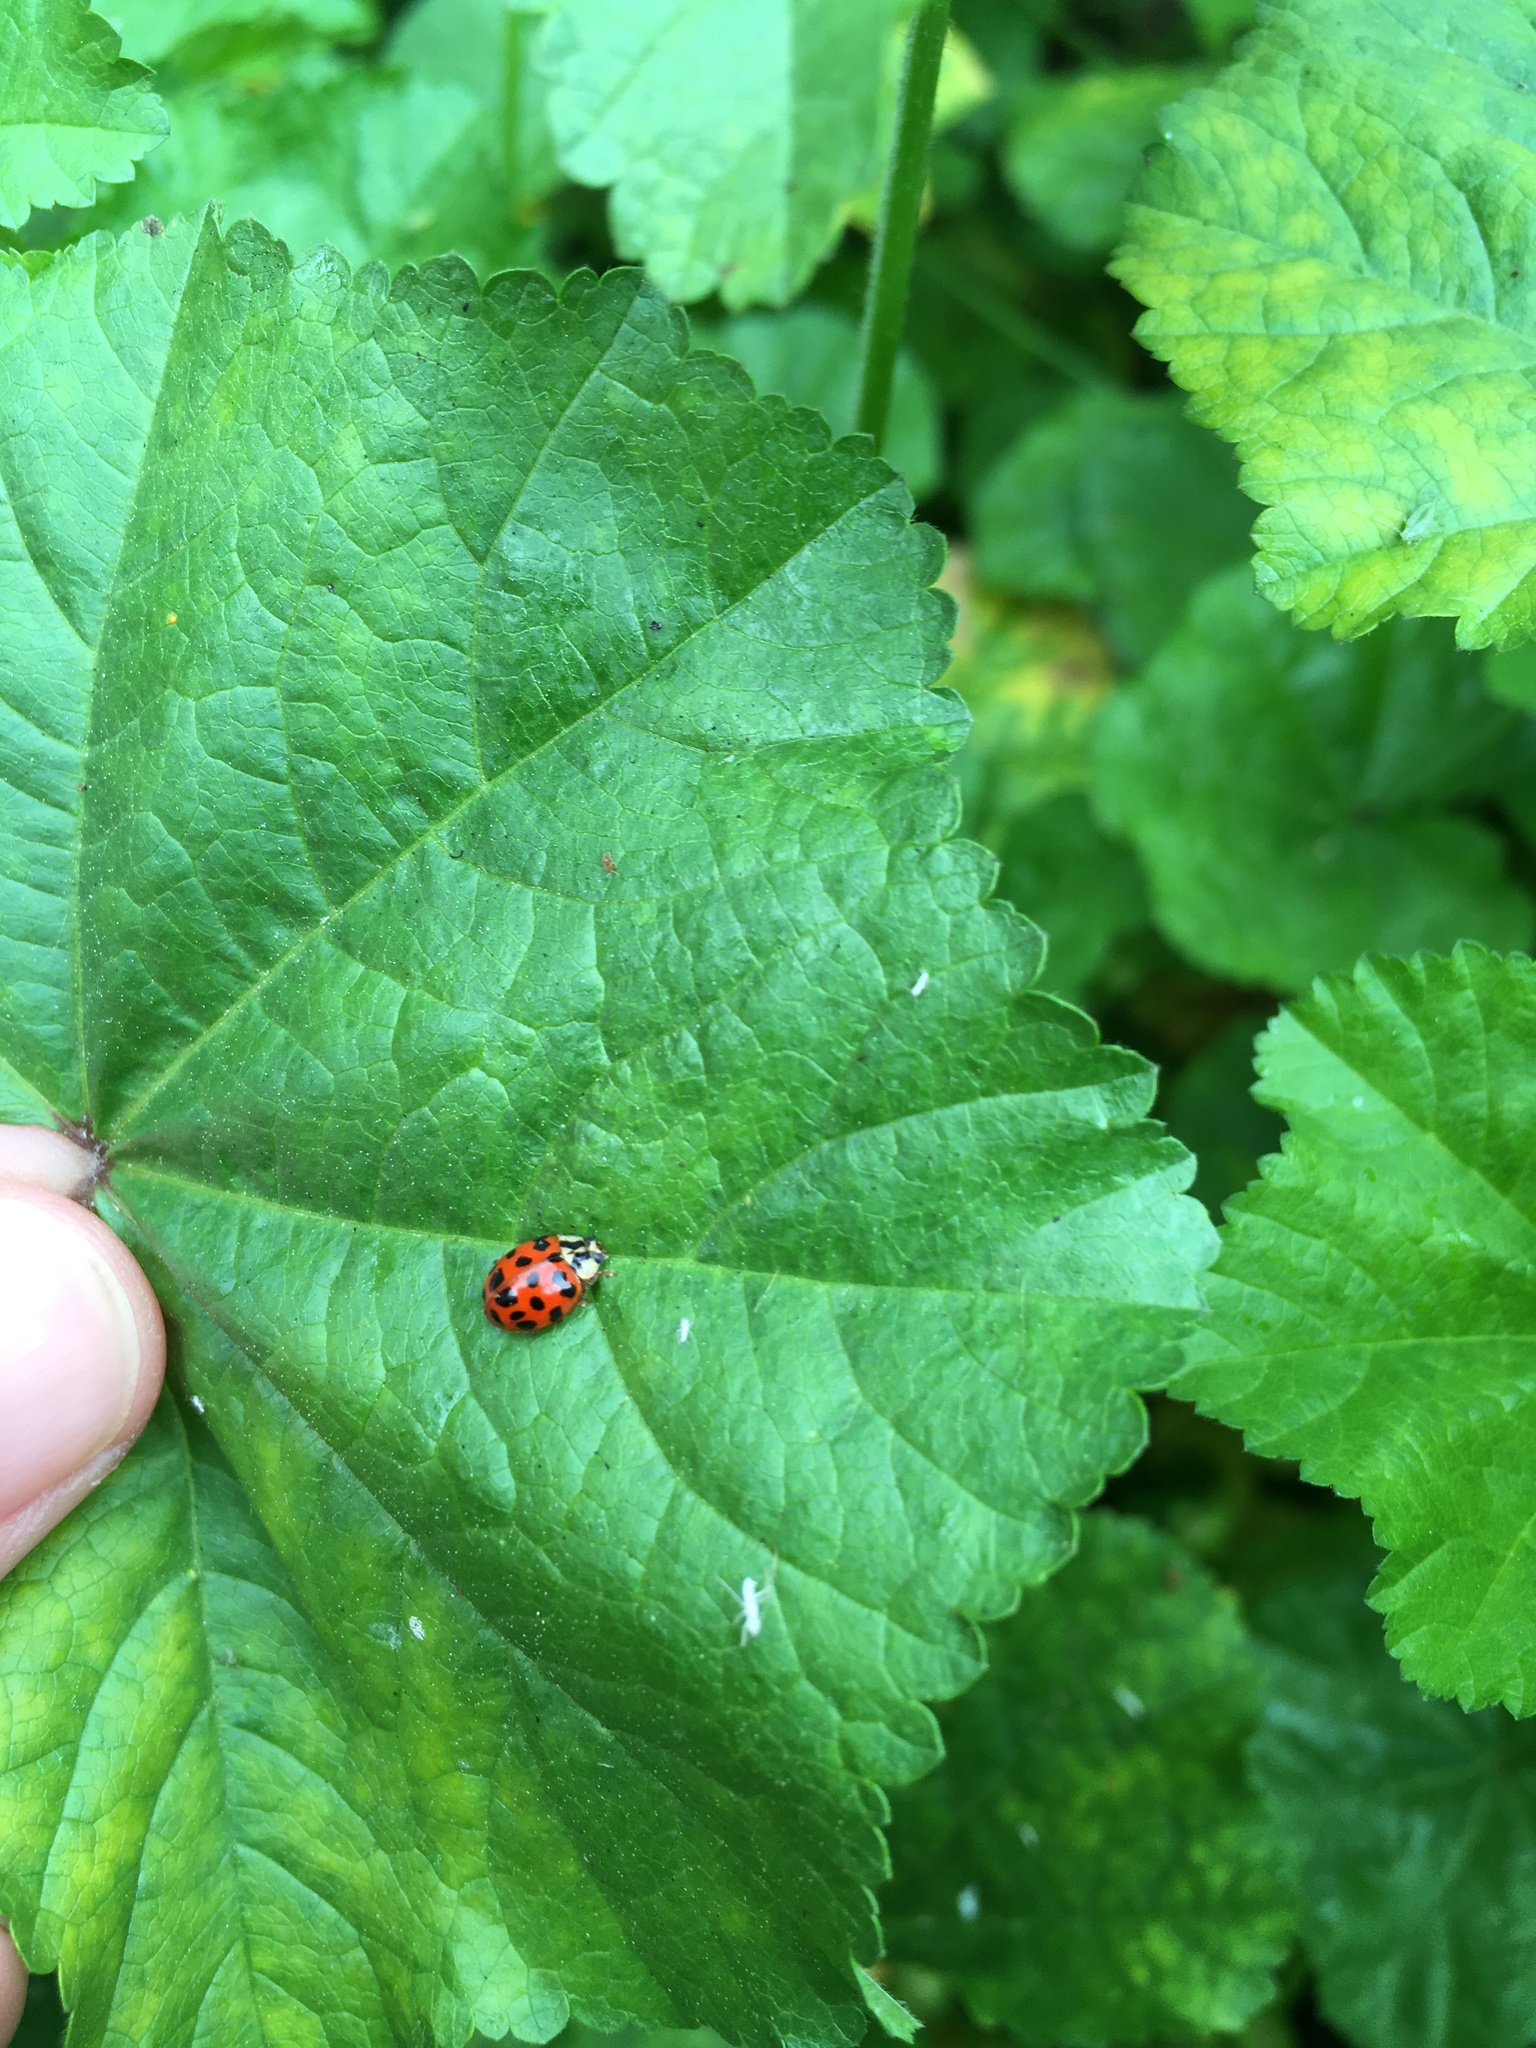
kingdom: Animalia
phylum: Arthropoda
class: Insecta
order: Coleoptera
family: Coccinellidae
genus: Harmonia
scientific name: Harmonia axyridis
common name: Harlequin ladybird
